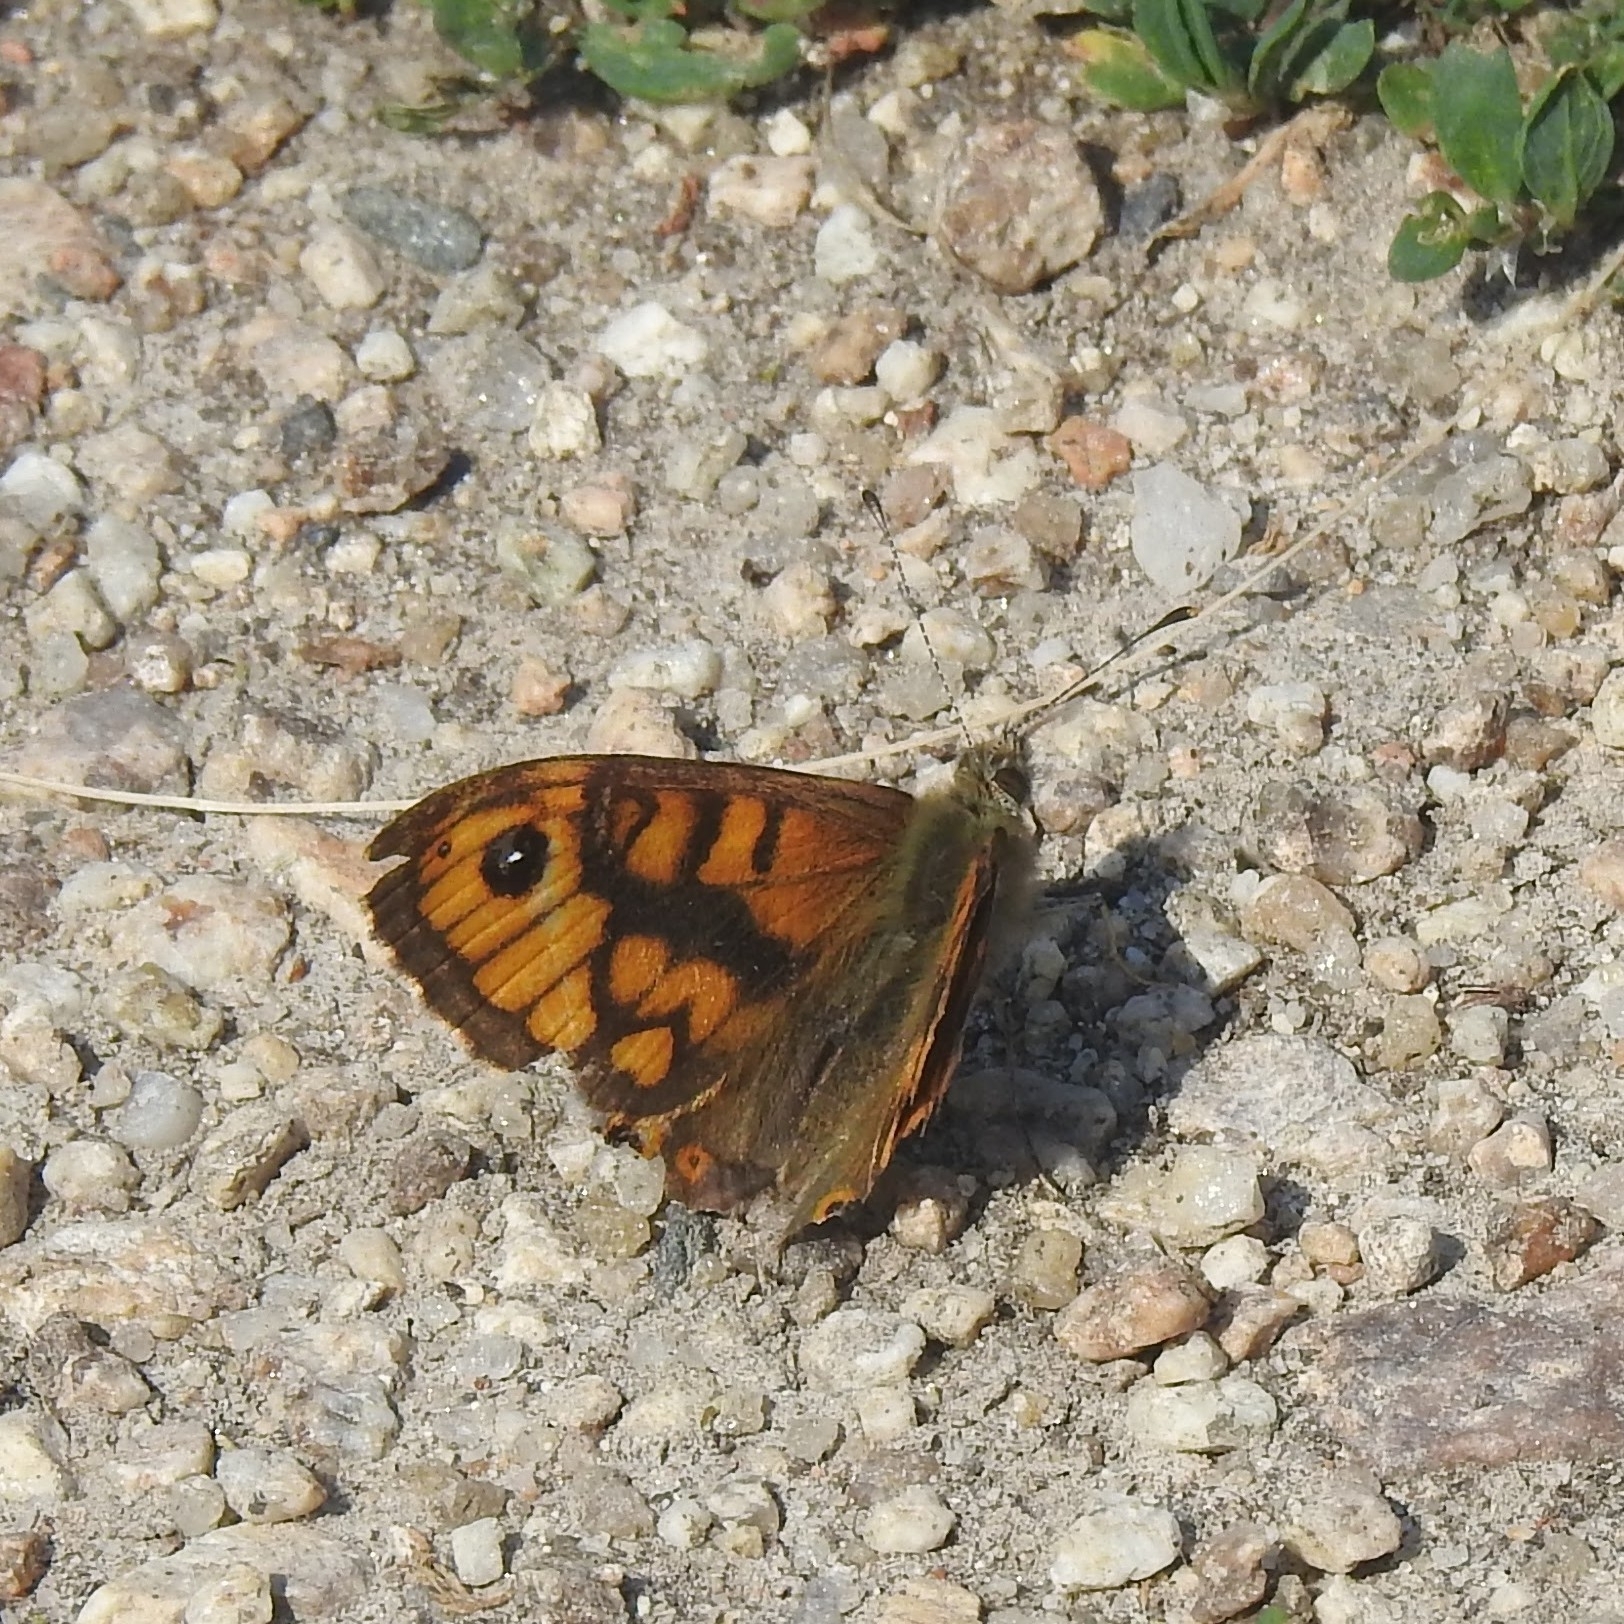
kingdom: Animalia
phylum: Arthropoda
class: Insecta
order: Lepidoptera
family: Nymphalidae
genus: Pararge
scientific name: Pararge Lasiommata megera
